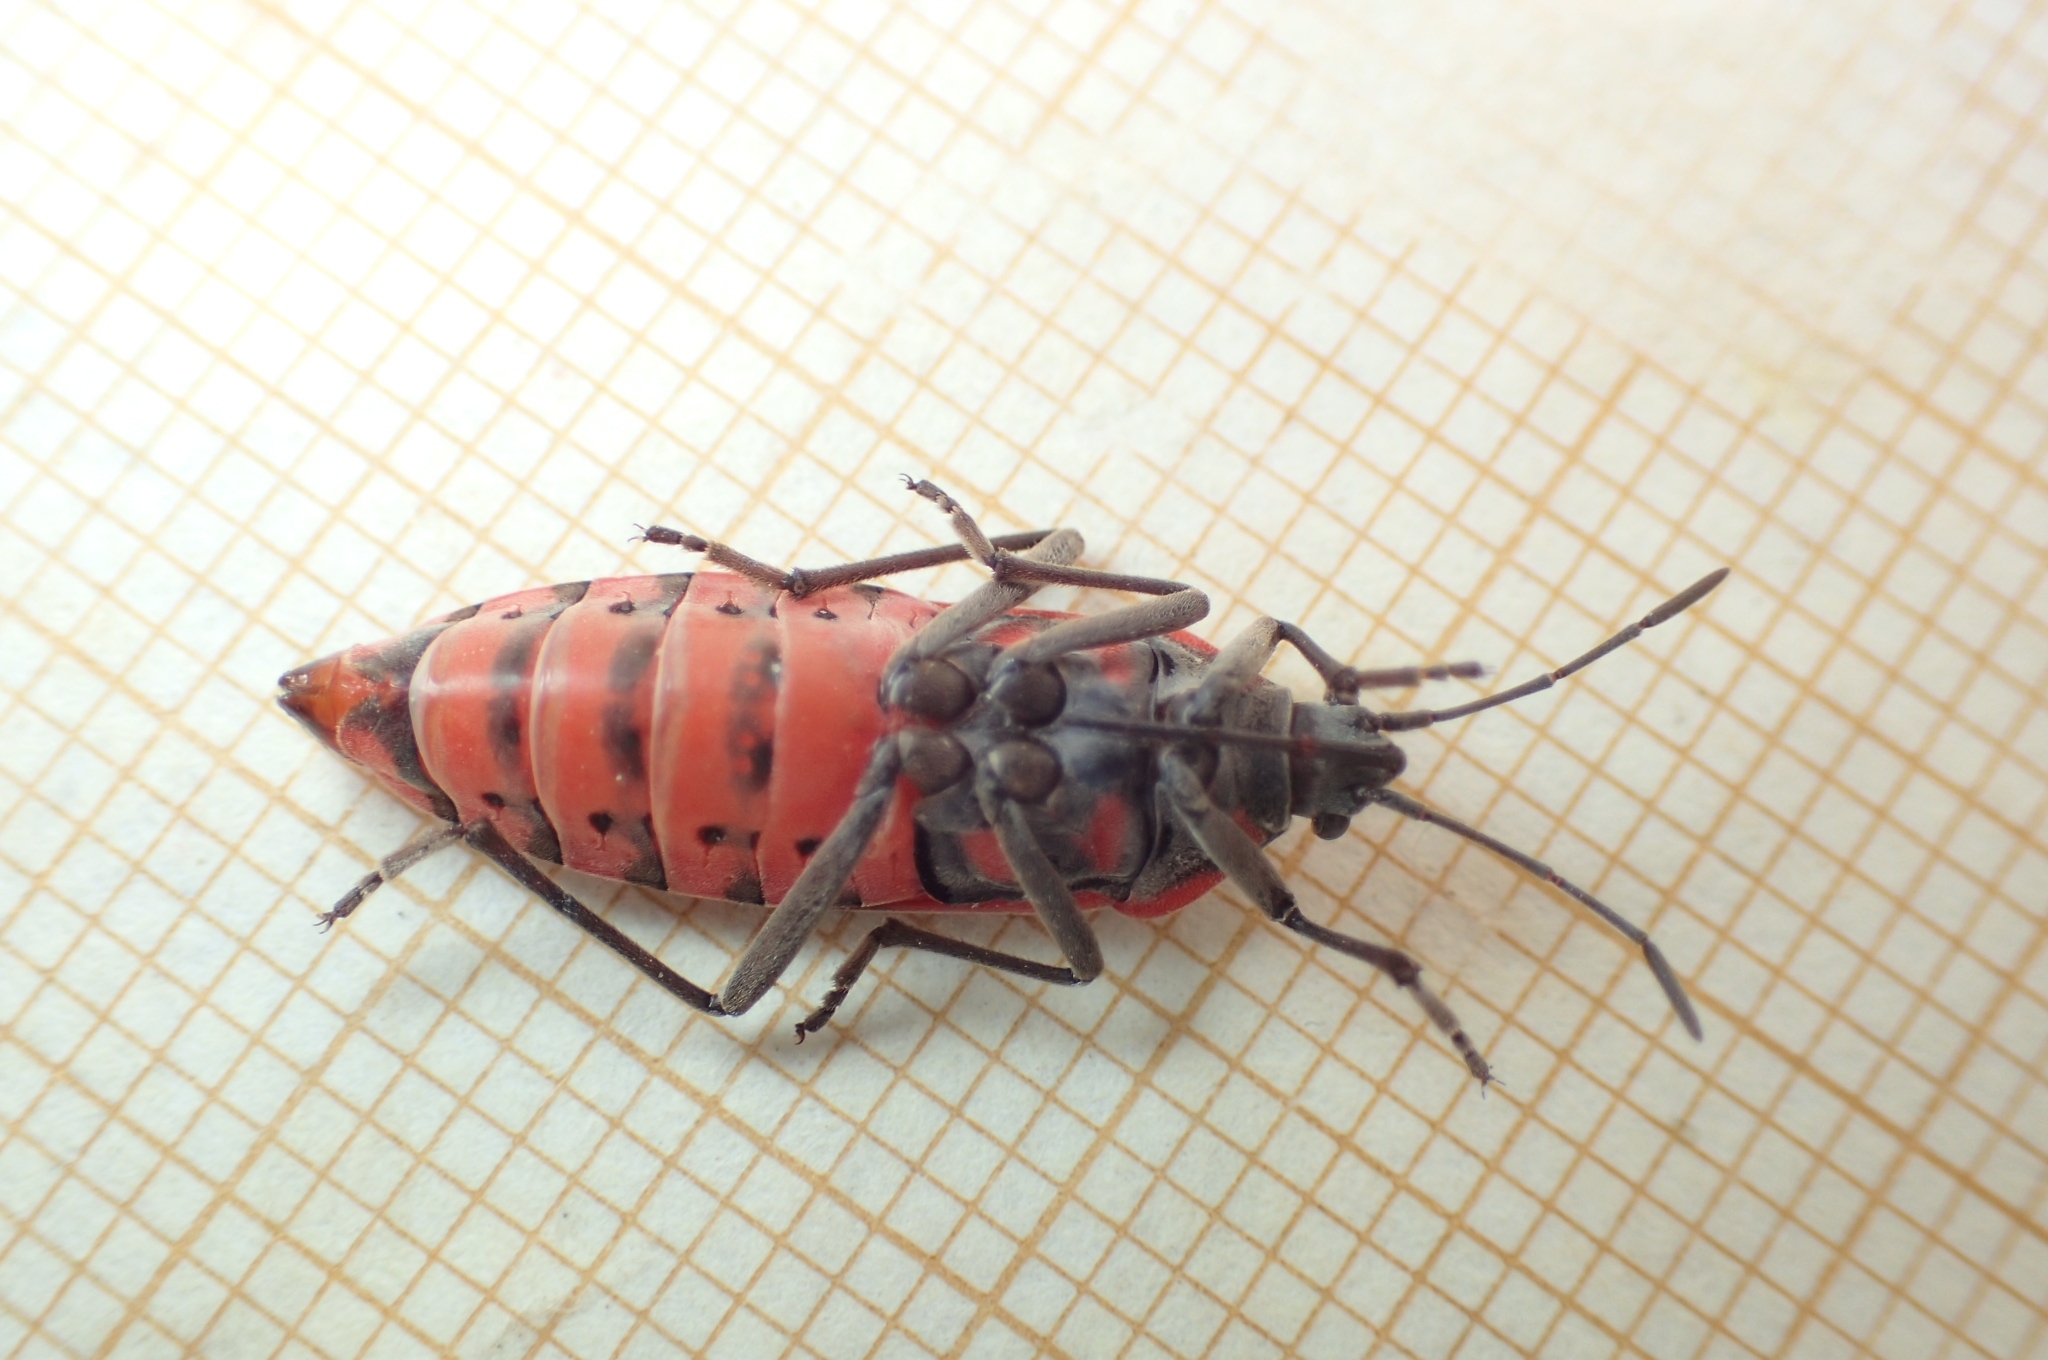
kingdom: Animalia
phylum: Arthropoda
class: Insecta
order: Hemiptera
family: Lygaeidae
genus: Spilostethus
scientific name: Spilostethus pandurus
